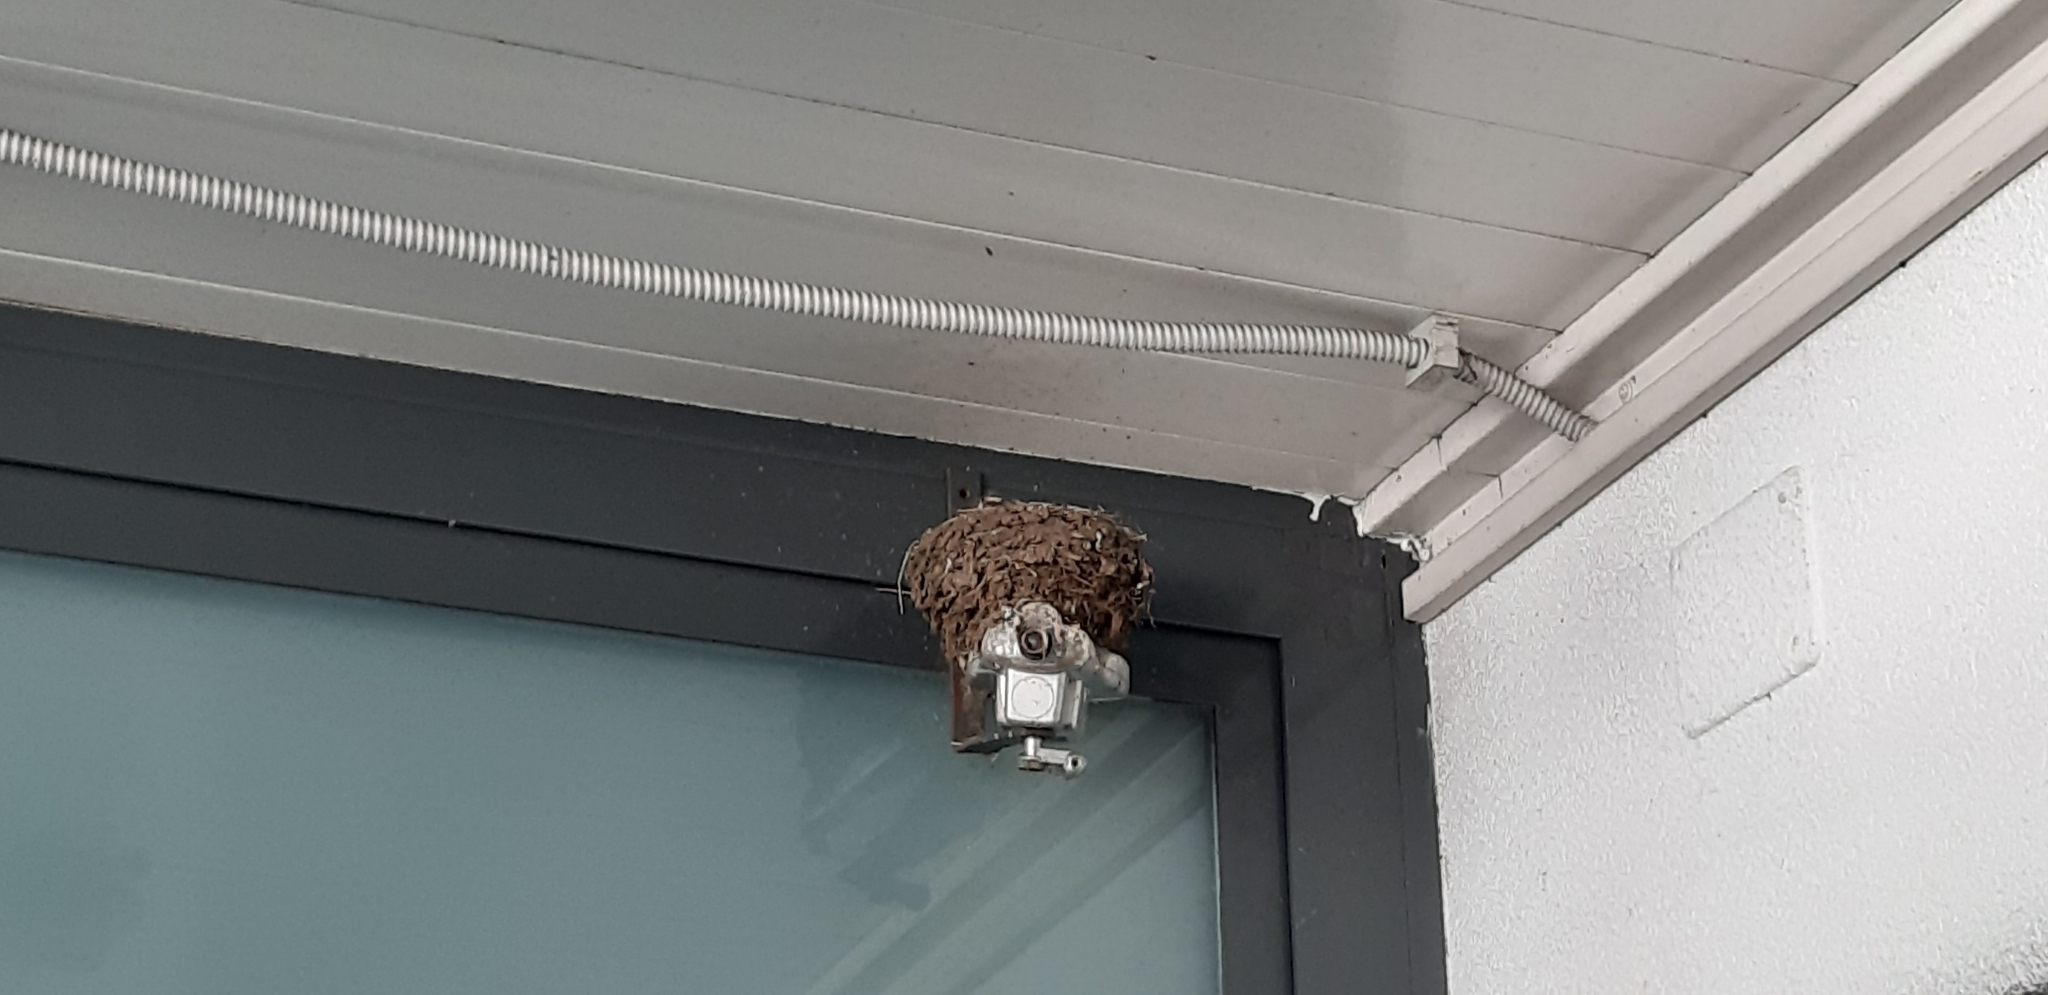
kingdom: Animalia
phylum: Chordata
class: Aves
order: Passeriformes
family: Hirundinidae
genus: Hirundo
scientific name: Hirundo rustica
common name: Barn swallow
